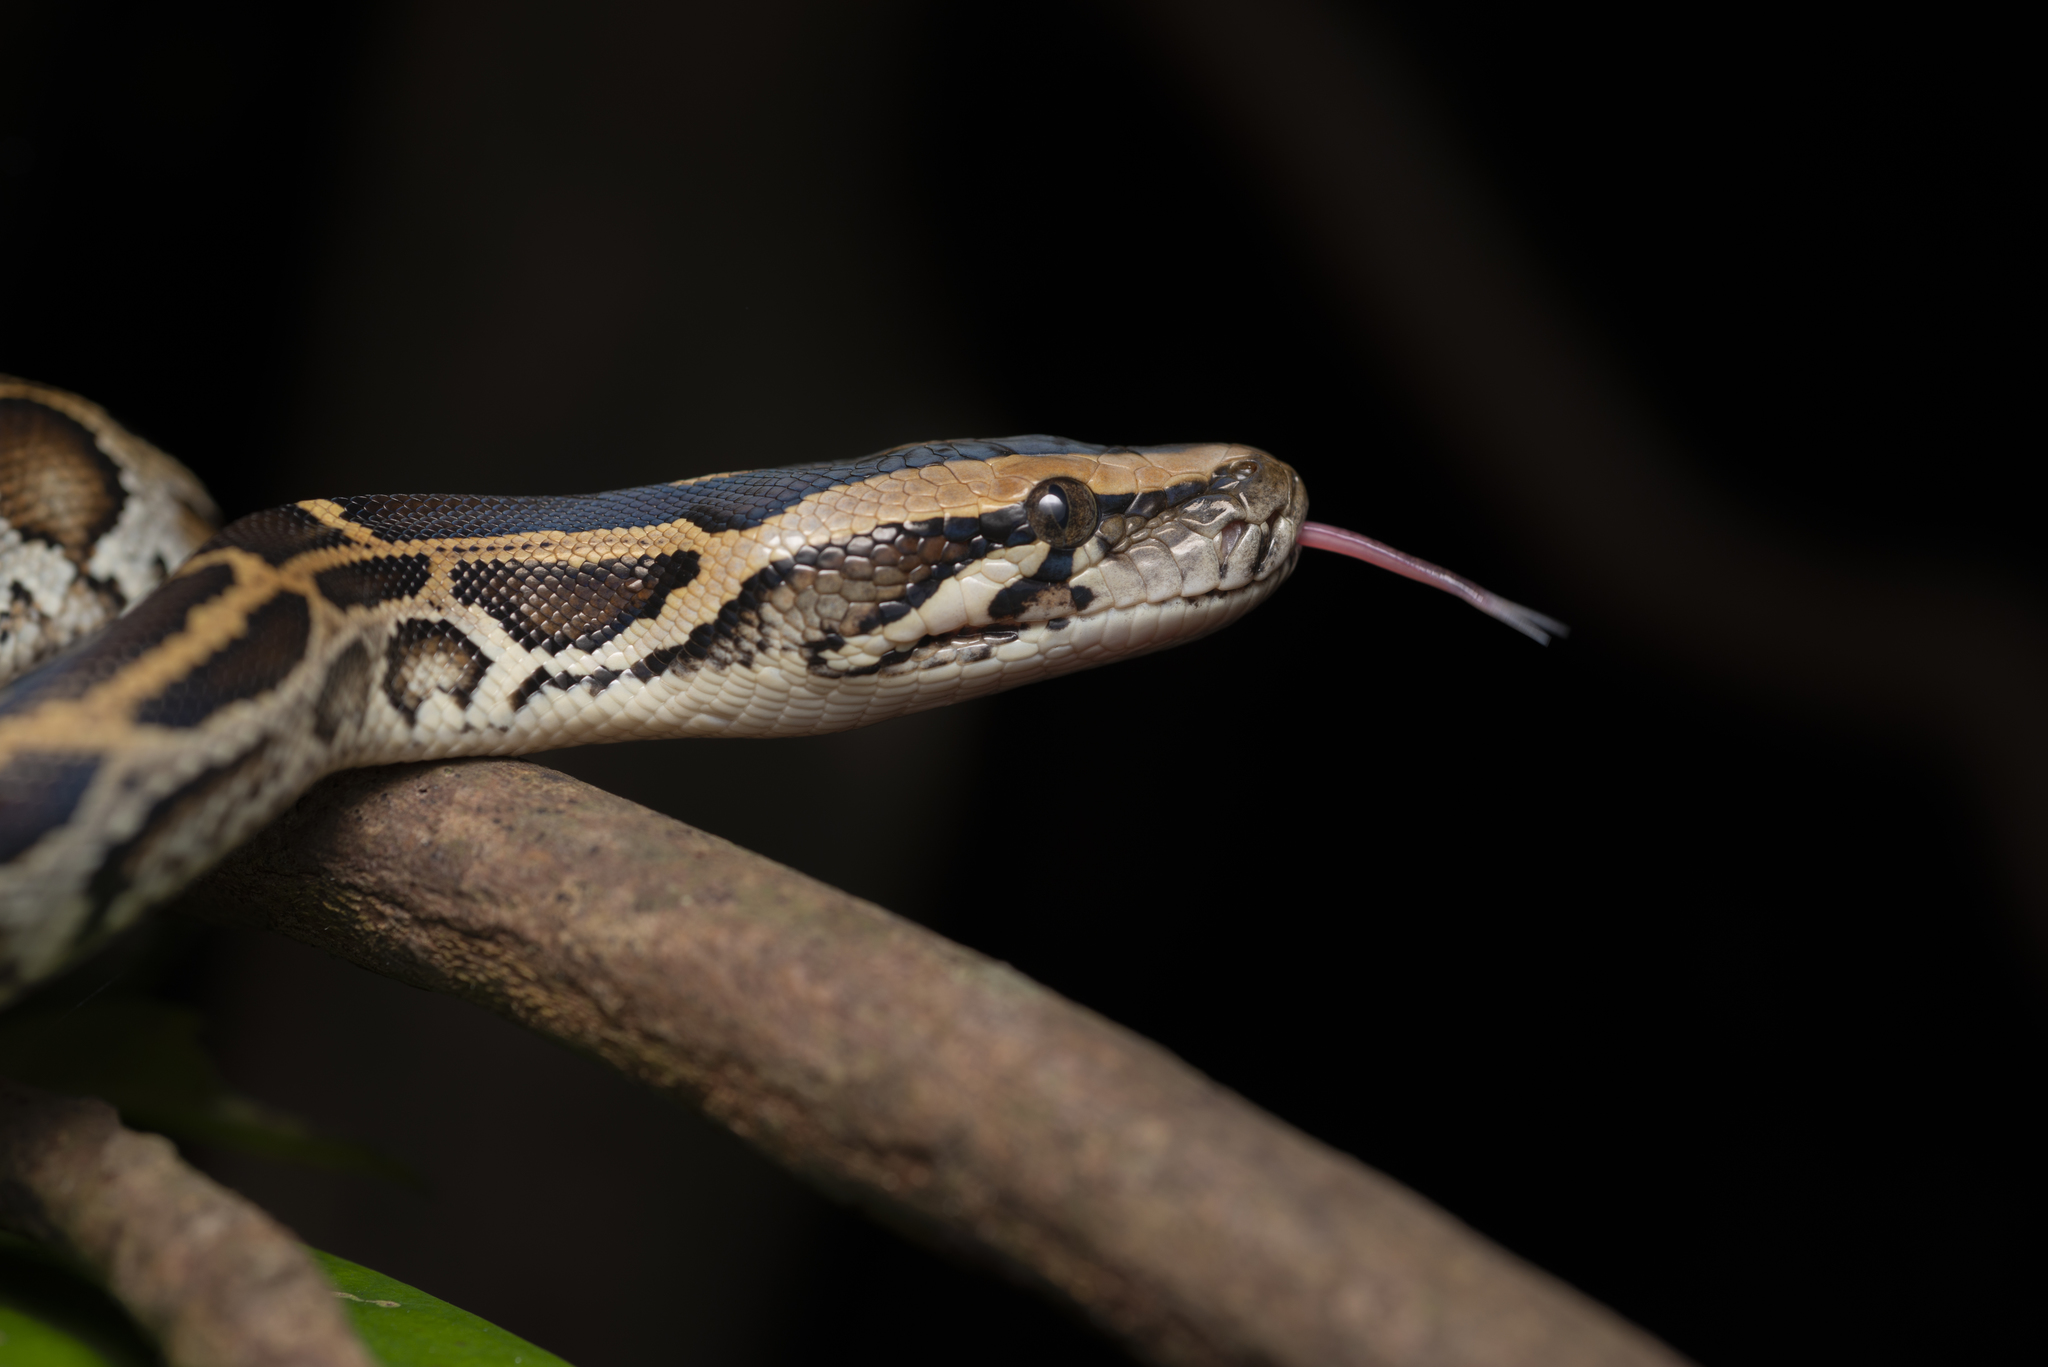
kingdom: Animalia
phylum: Chordata
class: Squamata
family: Pythonidae
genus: Python
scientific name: Python bivittatus
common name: Burmese python
